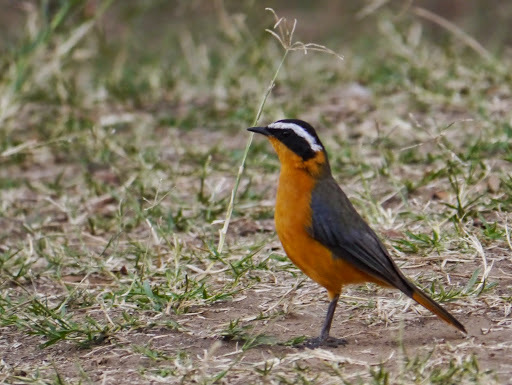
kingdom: Animalia
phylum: Chordata
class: Aves
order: Passeriformes
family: Muscicapidae
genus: Cossypha
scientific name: Cossypha heuglini
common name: White-browed robin-chat
